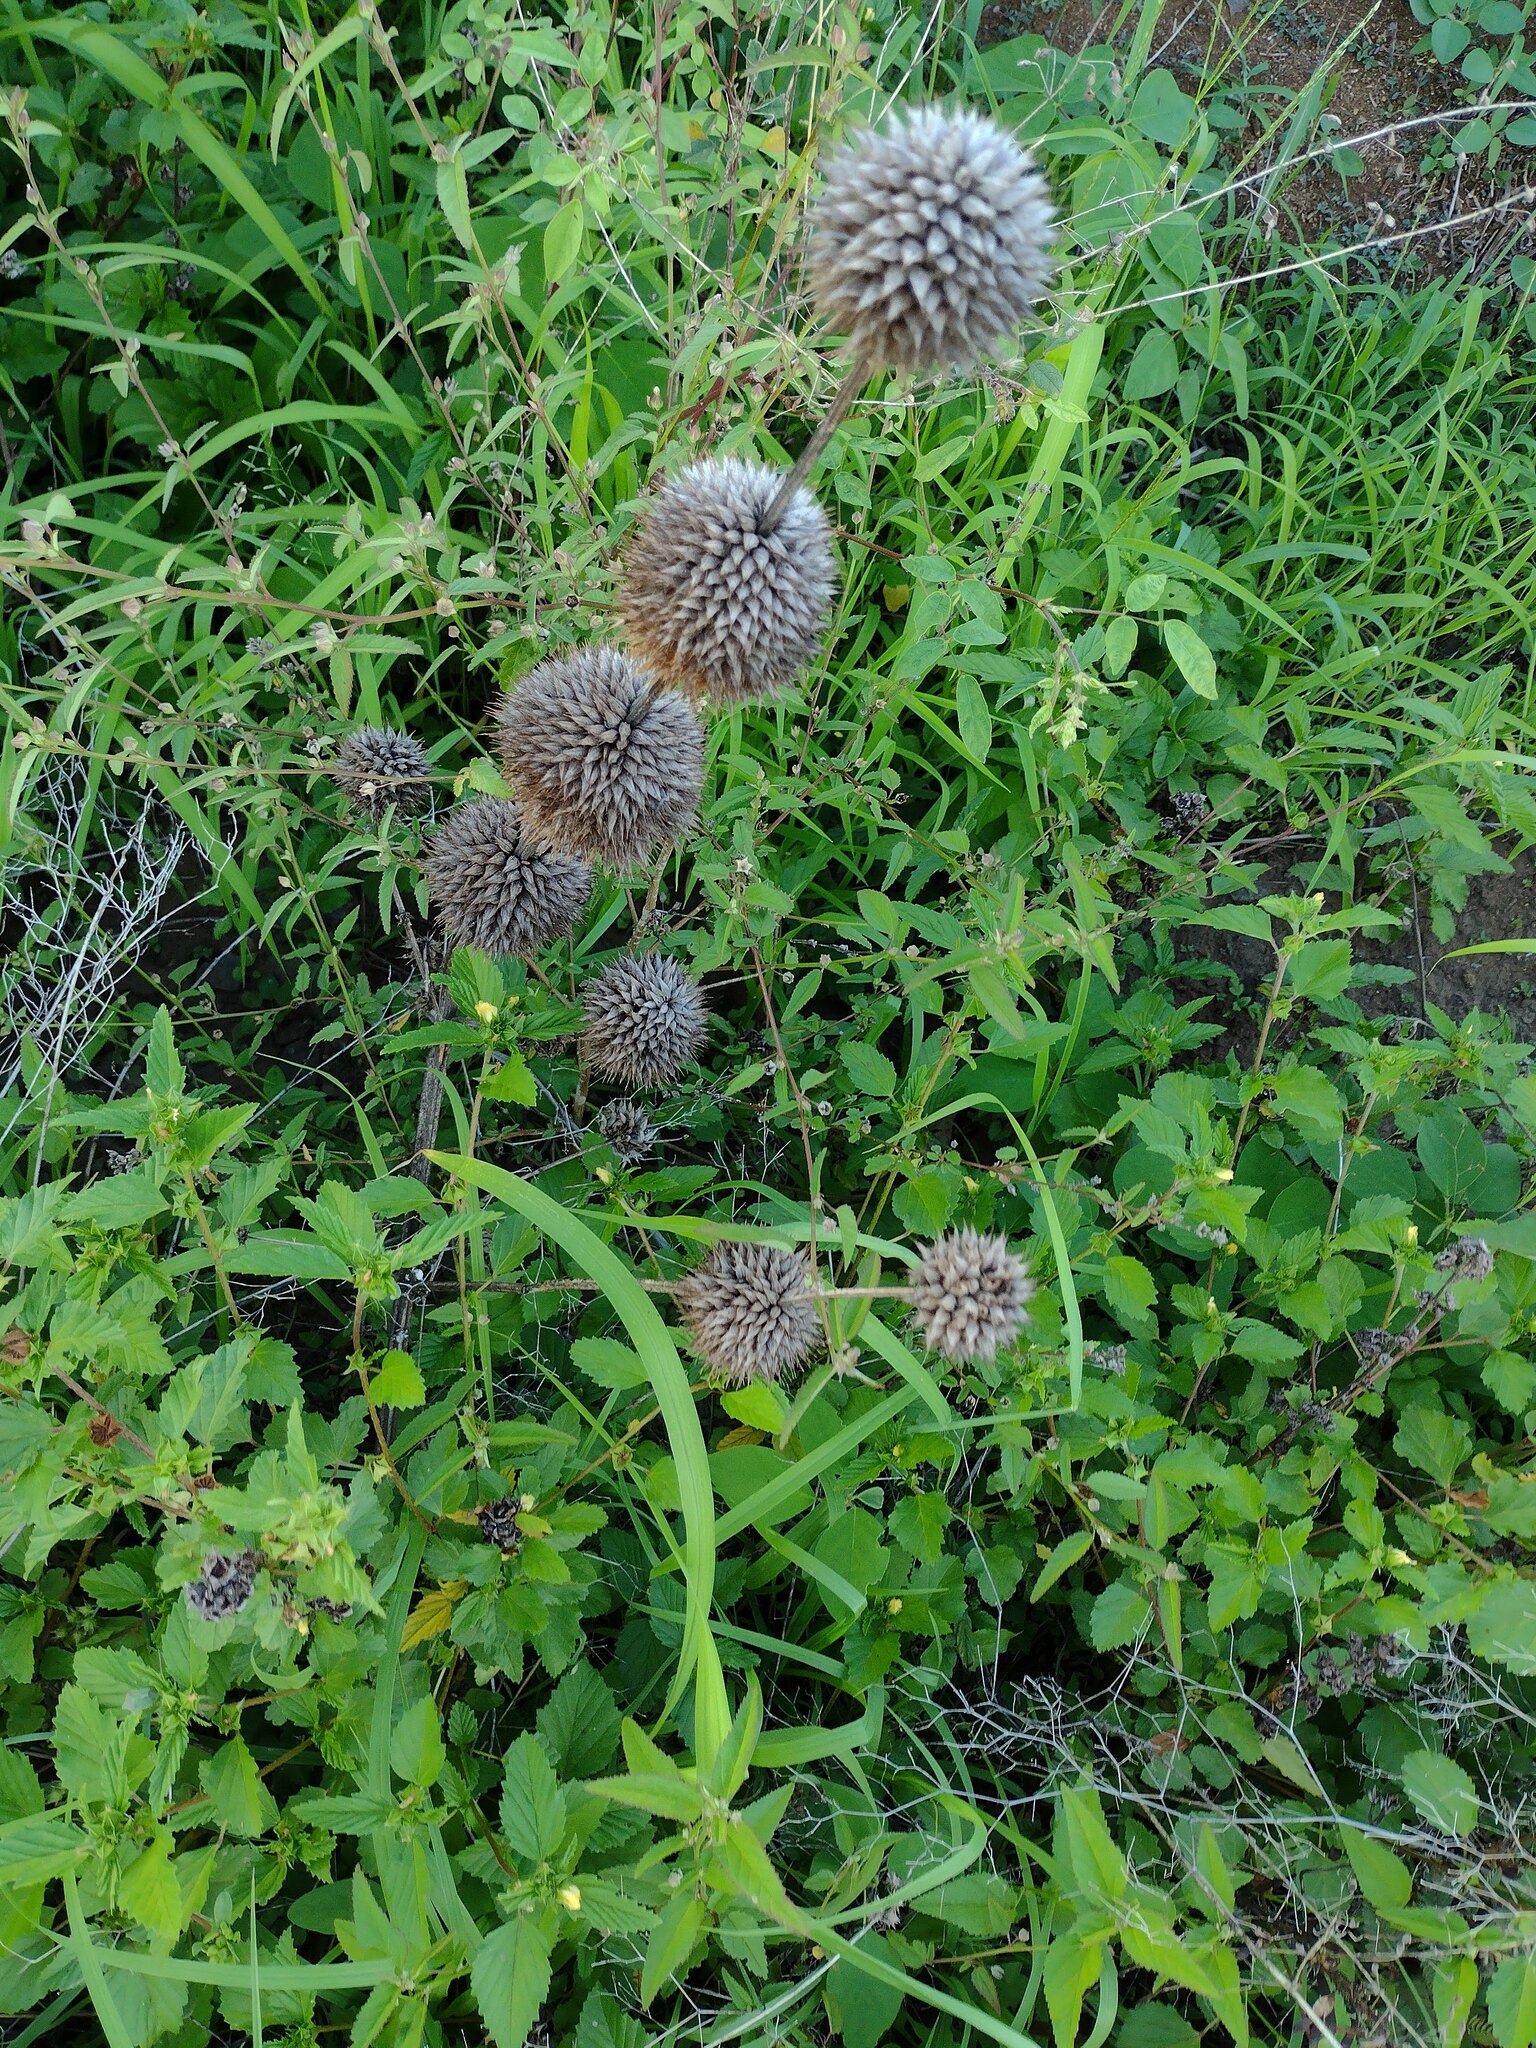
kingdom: Plantae
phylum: Tracheophyta
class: Magnoliopsida
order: Lamiales
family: Lamiaceae
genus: Leonotis
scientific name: Leonotis nepetifolia
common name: Christmas candlestick
